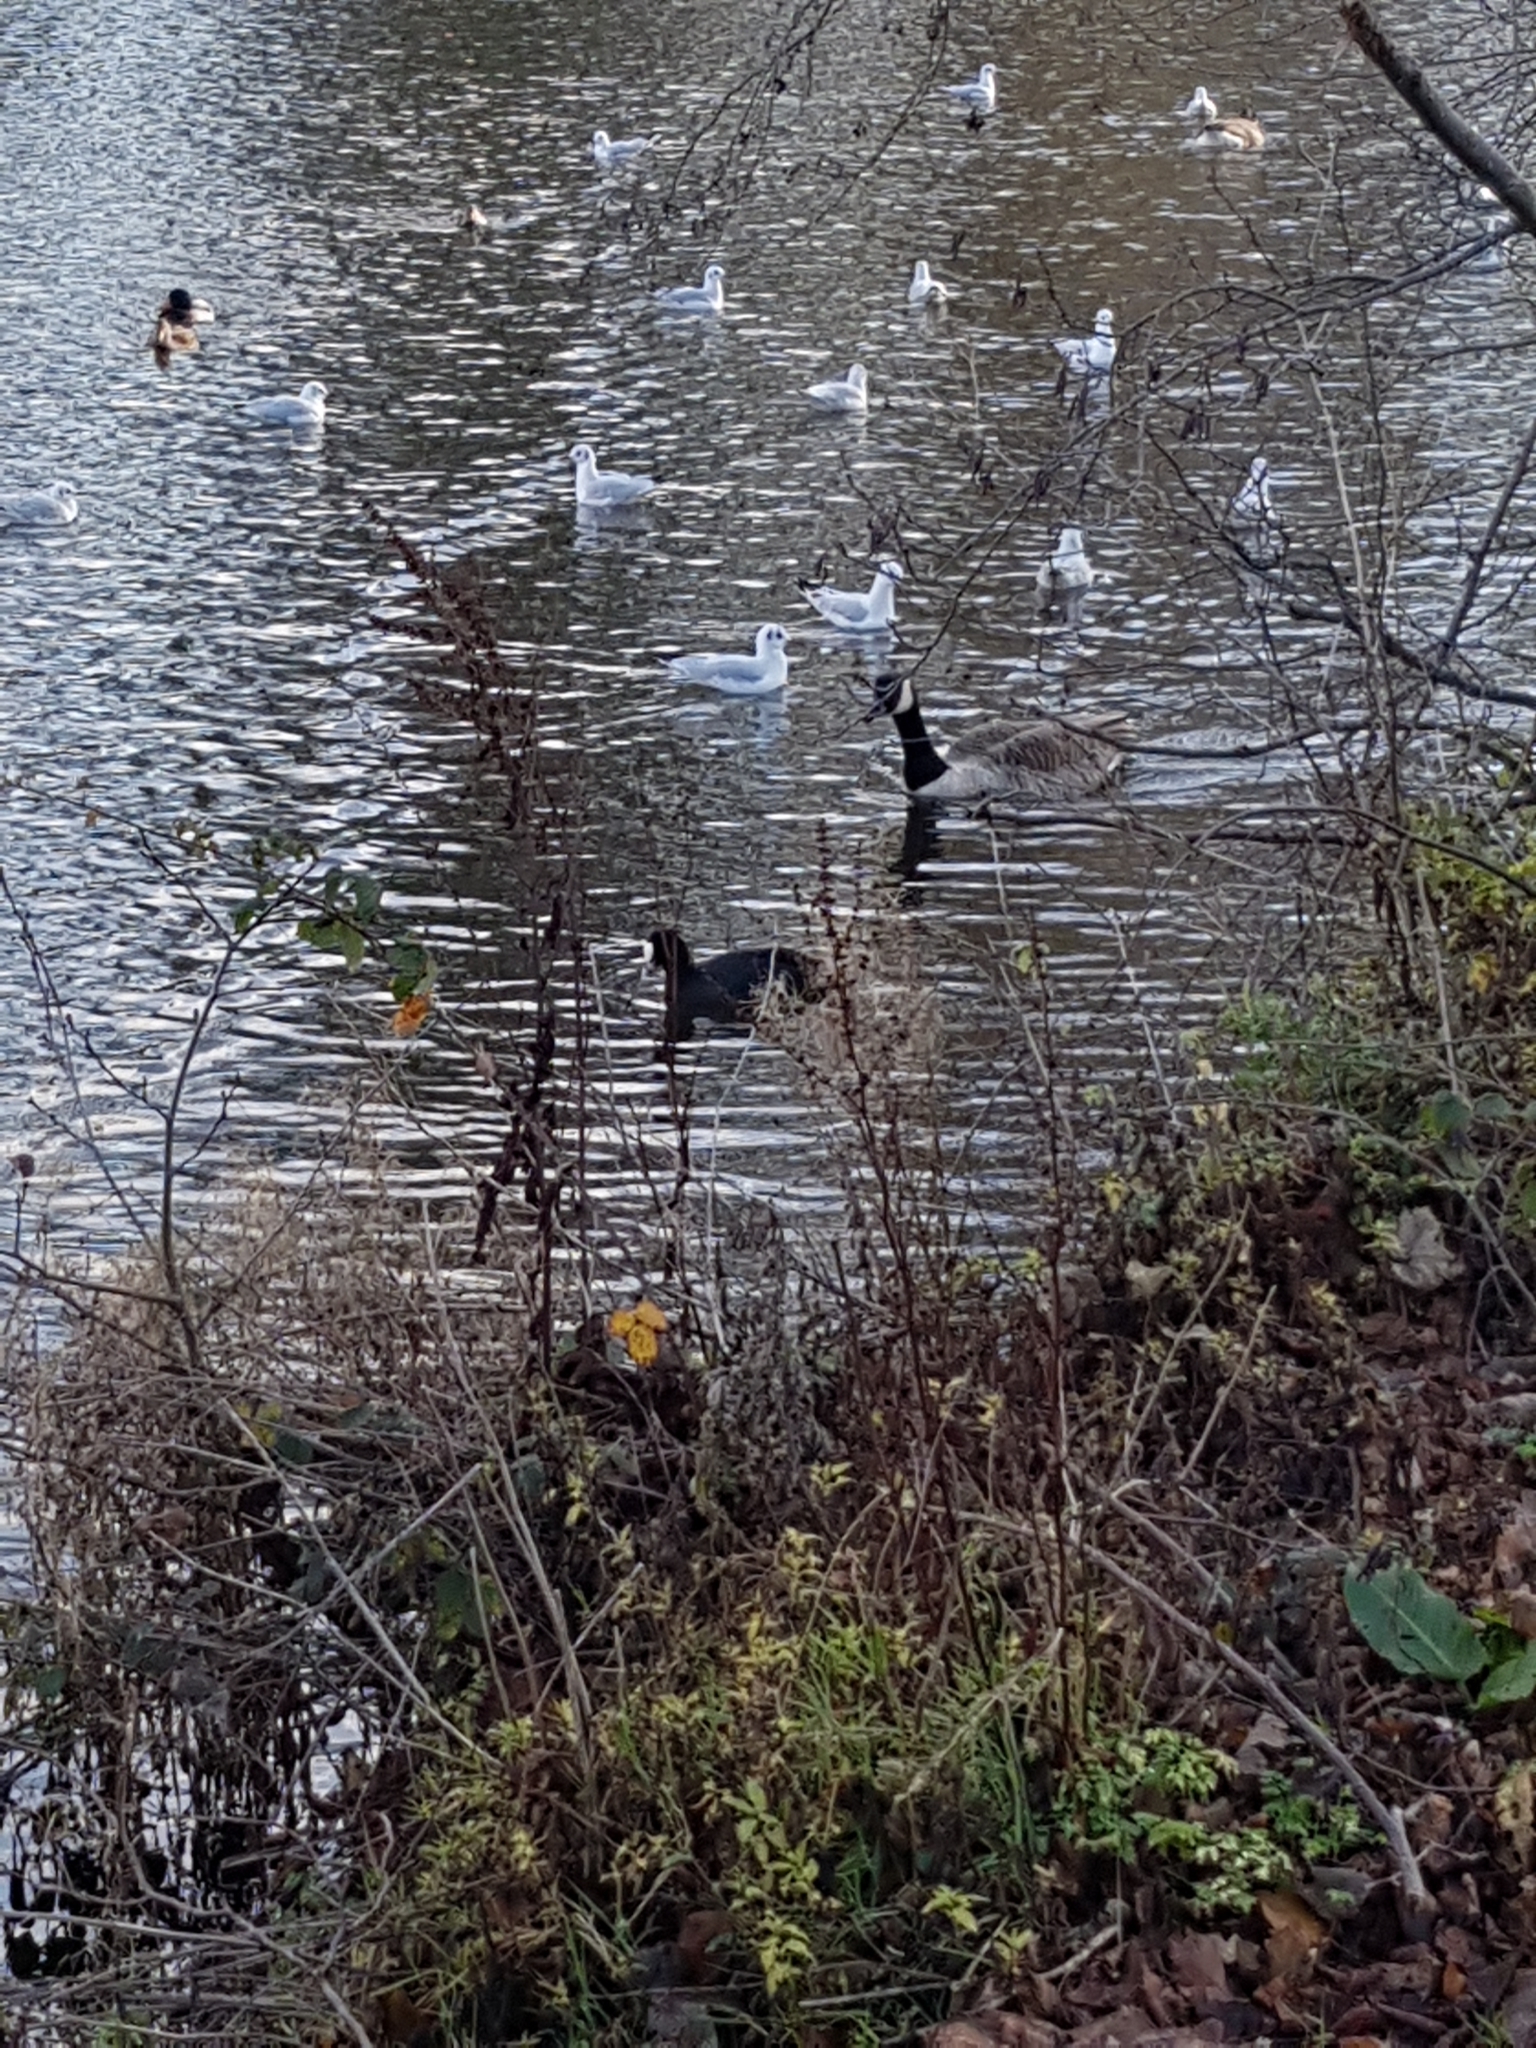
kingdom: Animalia
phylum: Chordata
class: Aves
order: Anseriformes
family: Anatidae
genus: Branta
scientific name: Branta canadensis
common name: Canada goose
